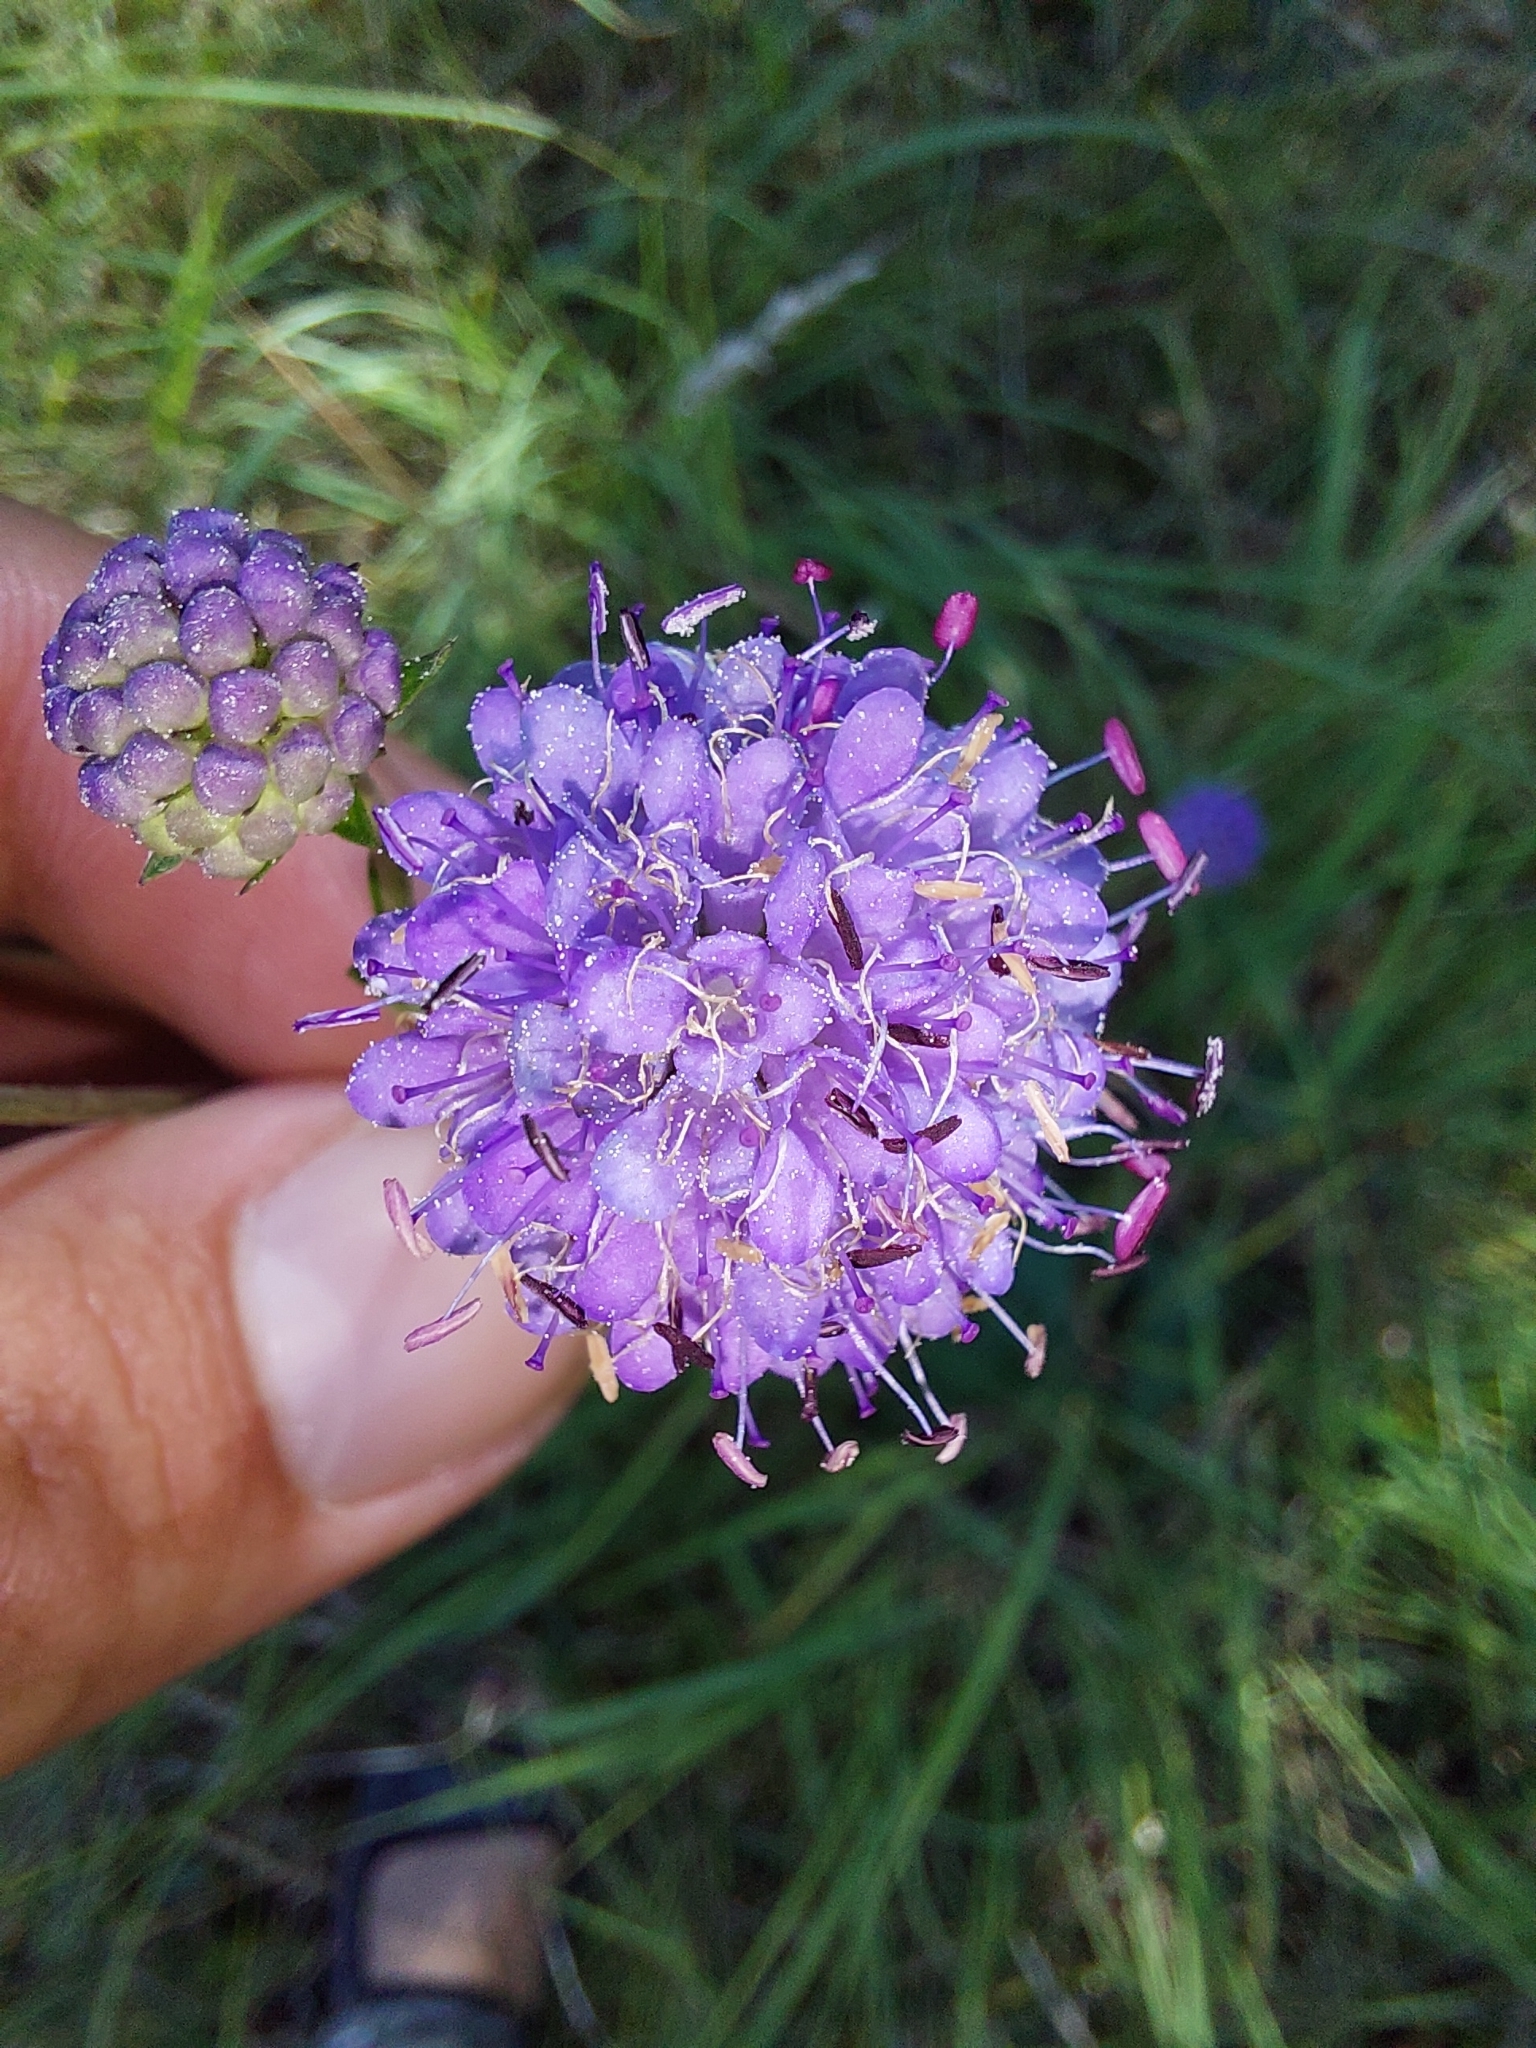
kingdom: Plantae
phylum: Tracheophyta
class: Magnoliopsida
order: Dipsacales
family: Caprifoliaceae
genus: Succisa
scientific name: Succisa pratensis
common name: Devil's-bit
